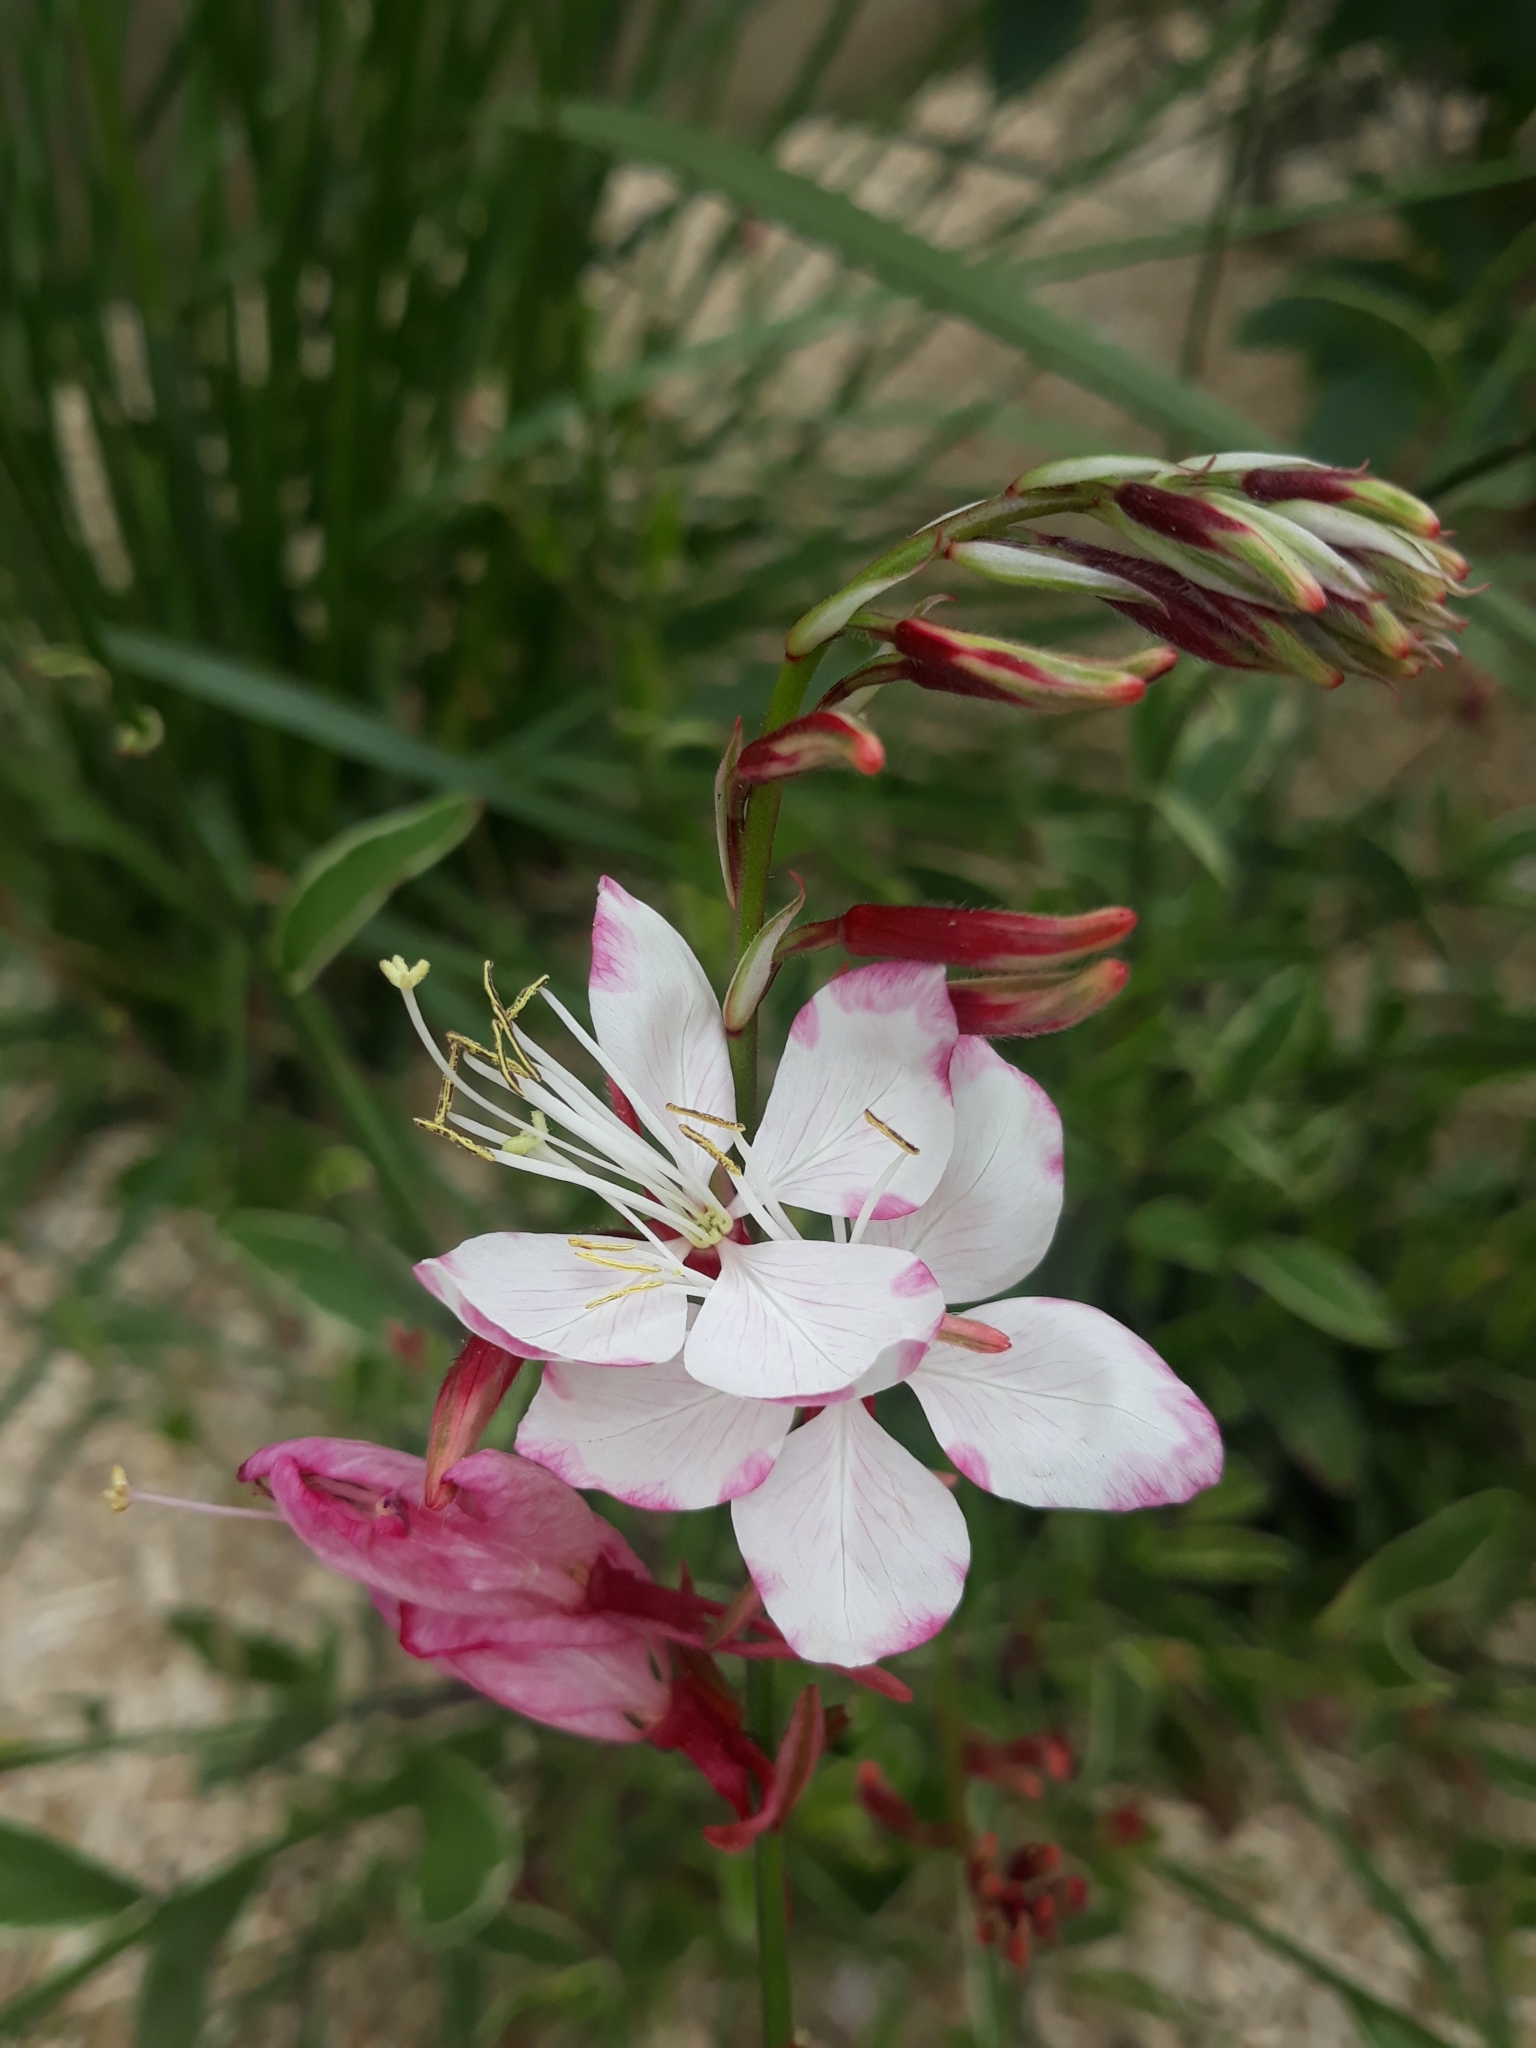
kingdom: Plantae
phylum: Tracheophyta
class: Magnoliopsida
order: Myrtales
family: Onagraceae
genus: Oenothera
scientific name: Oenothera lindheimeri
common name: Lindheimer's beeblossom
